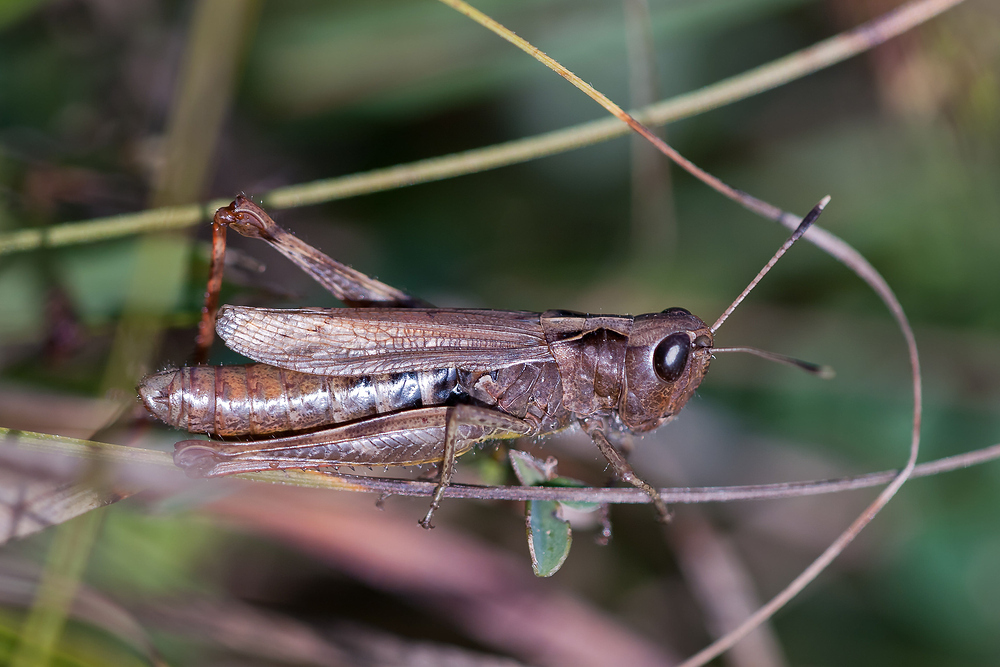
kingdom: Animalia
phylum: Arthropoda
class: Insecta
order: Orthoptera
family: Acrididae
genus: Gomphocerippus
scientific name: Gomphocerippus rufus
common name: Rufous grasshopper
